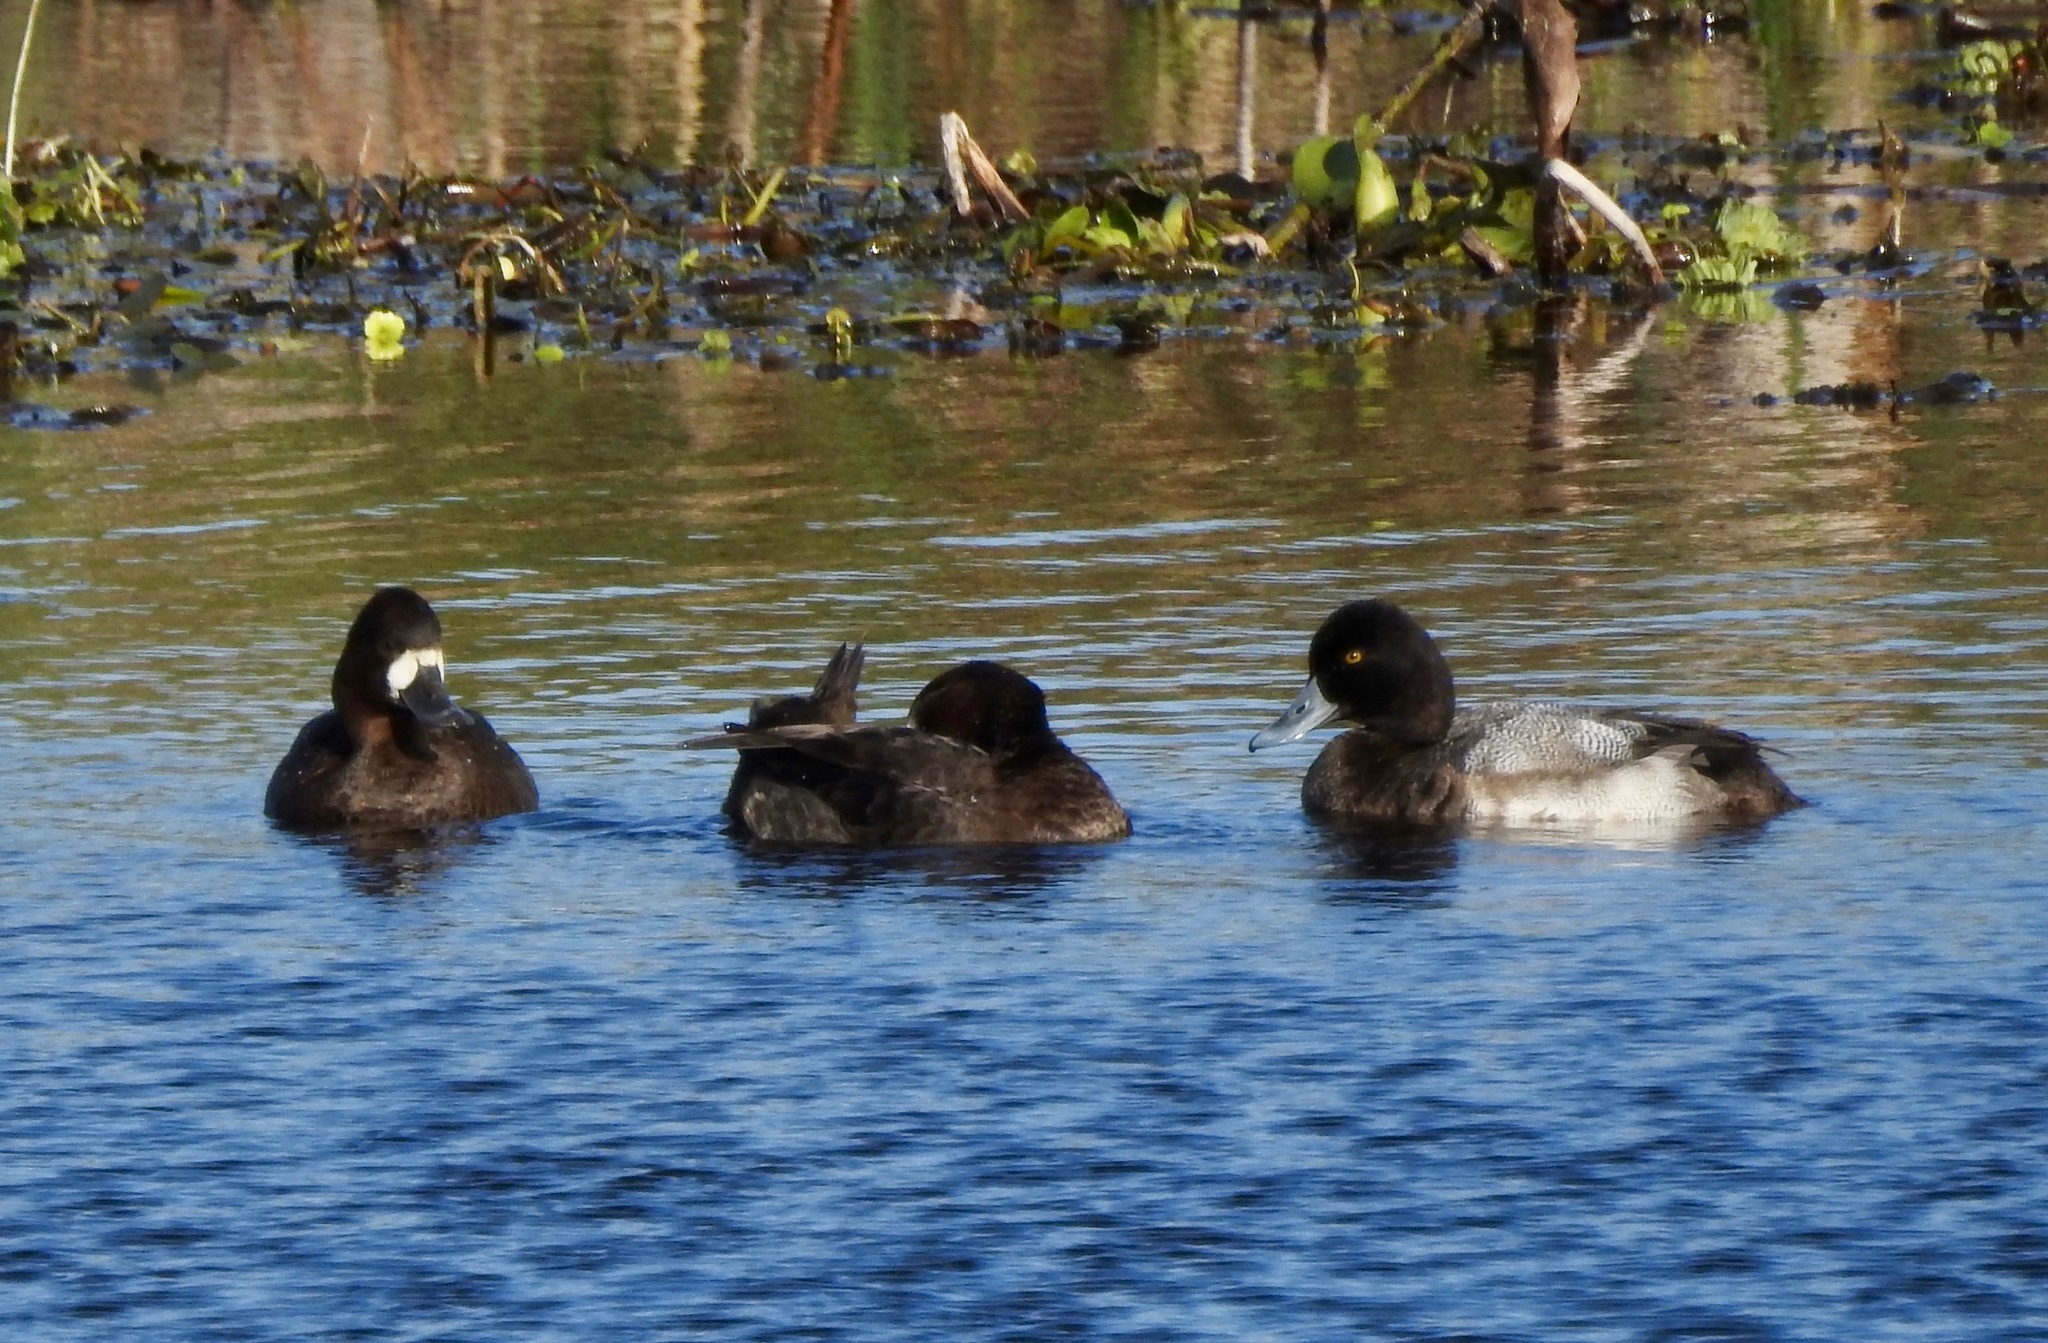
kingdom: Animalia
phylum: Chordata
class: Aves
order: Anseriformes
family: Anatidae
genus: Aythya
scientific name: Aythya affinis
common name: Lesser scaup
